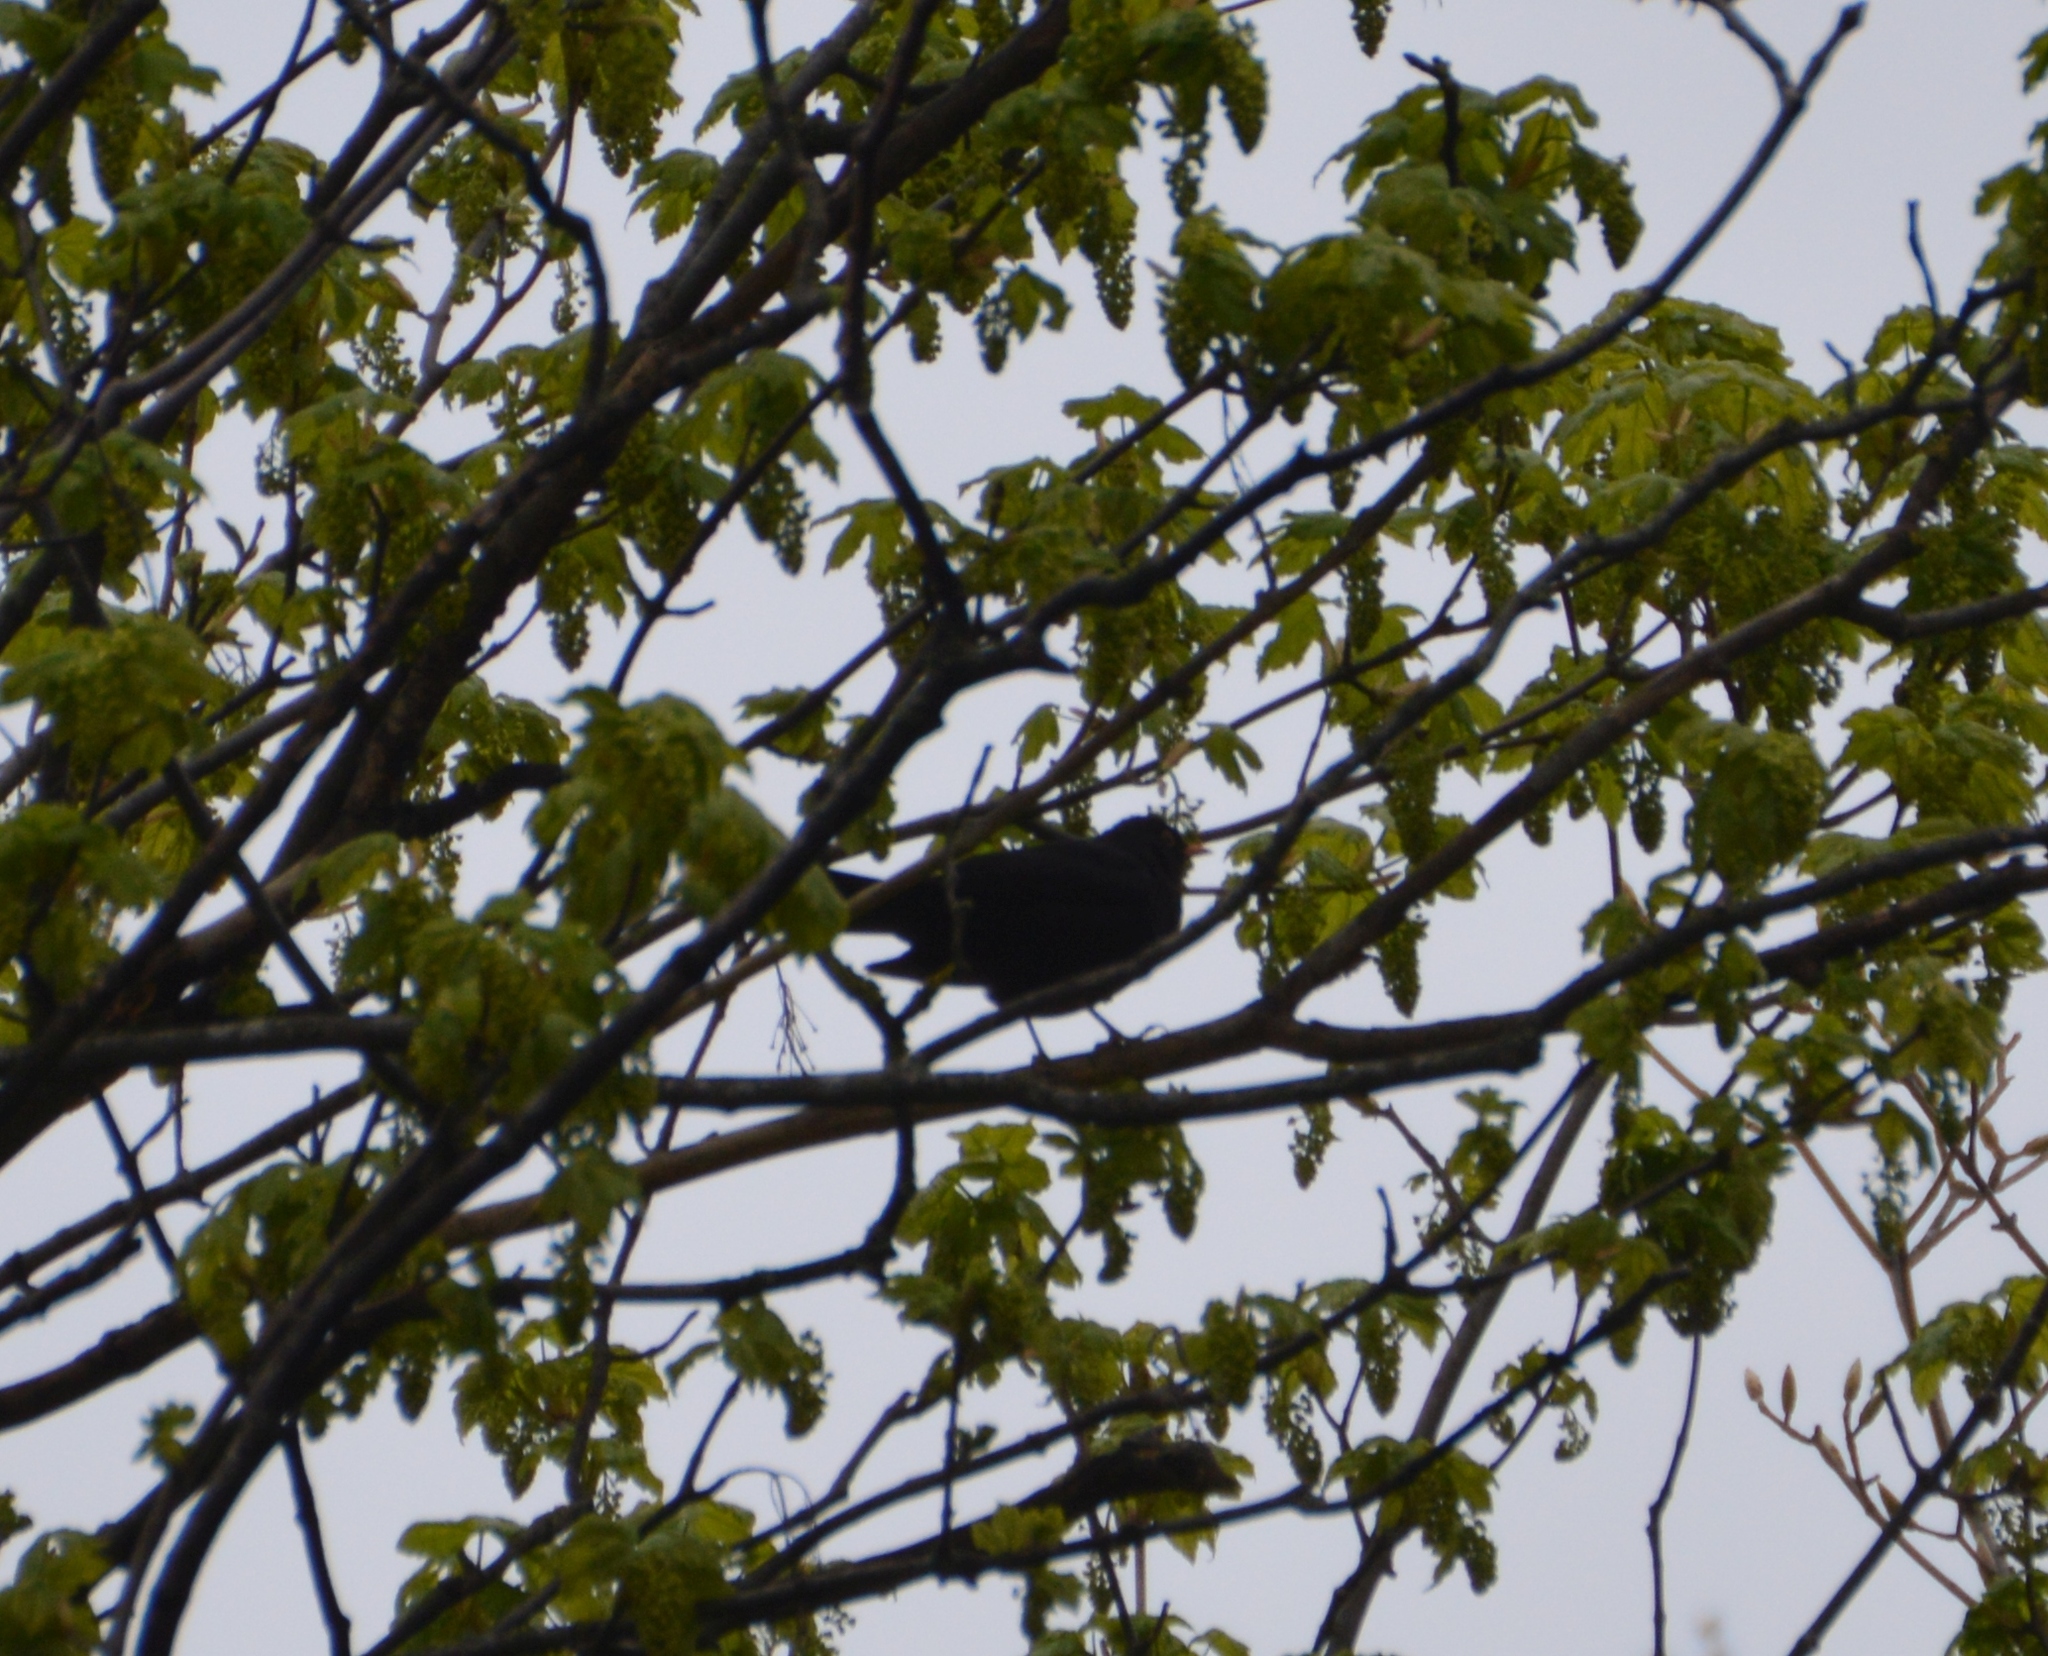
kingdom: Animalia
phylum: Chordata
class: Aves
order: Passeriformes
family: Turdidae
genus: Turdus
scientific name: Turdus merula
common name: Common blackbird
